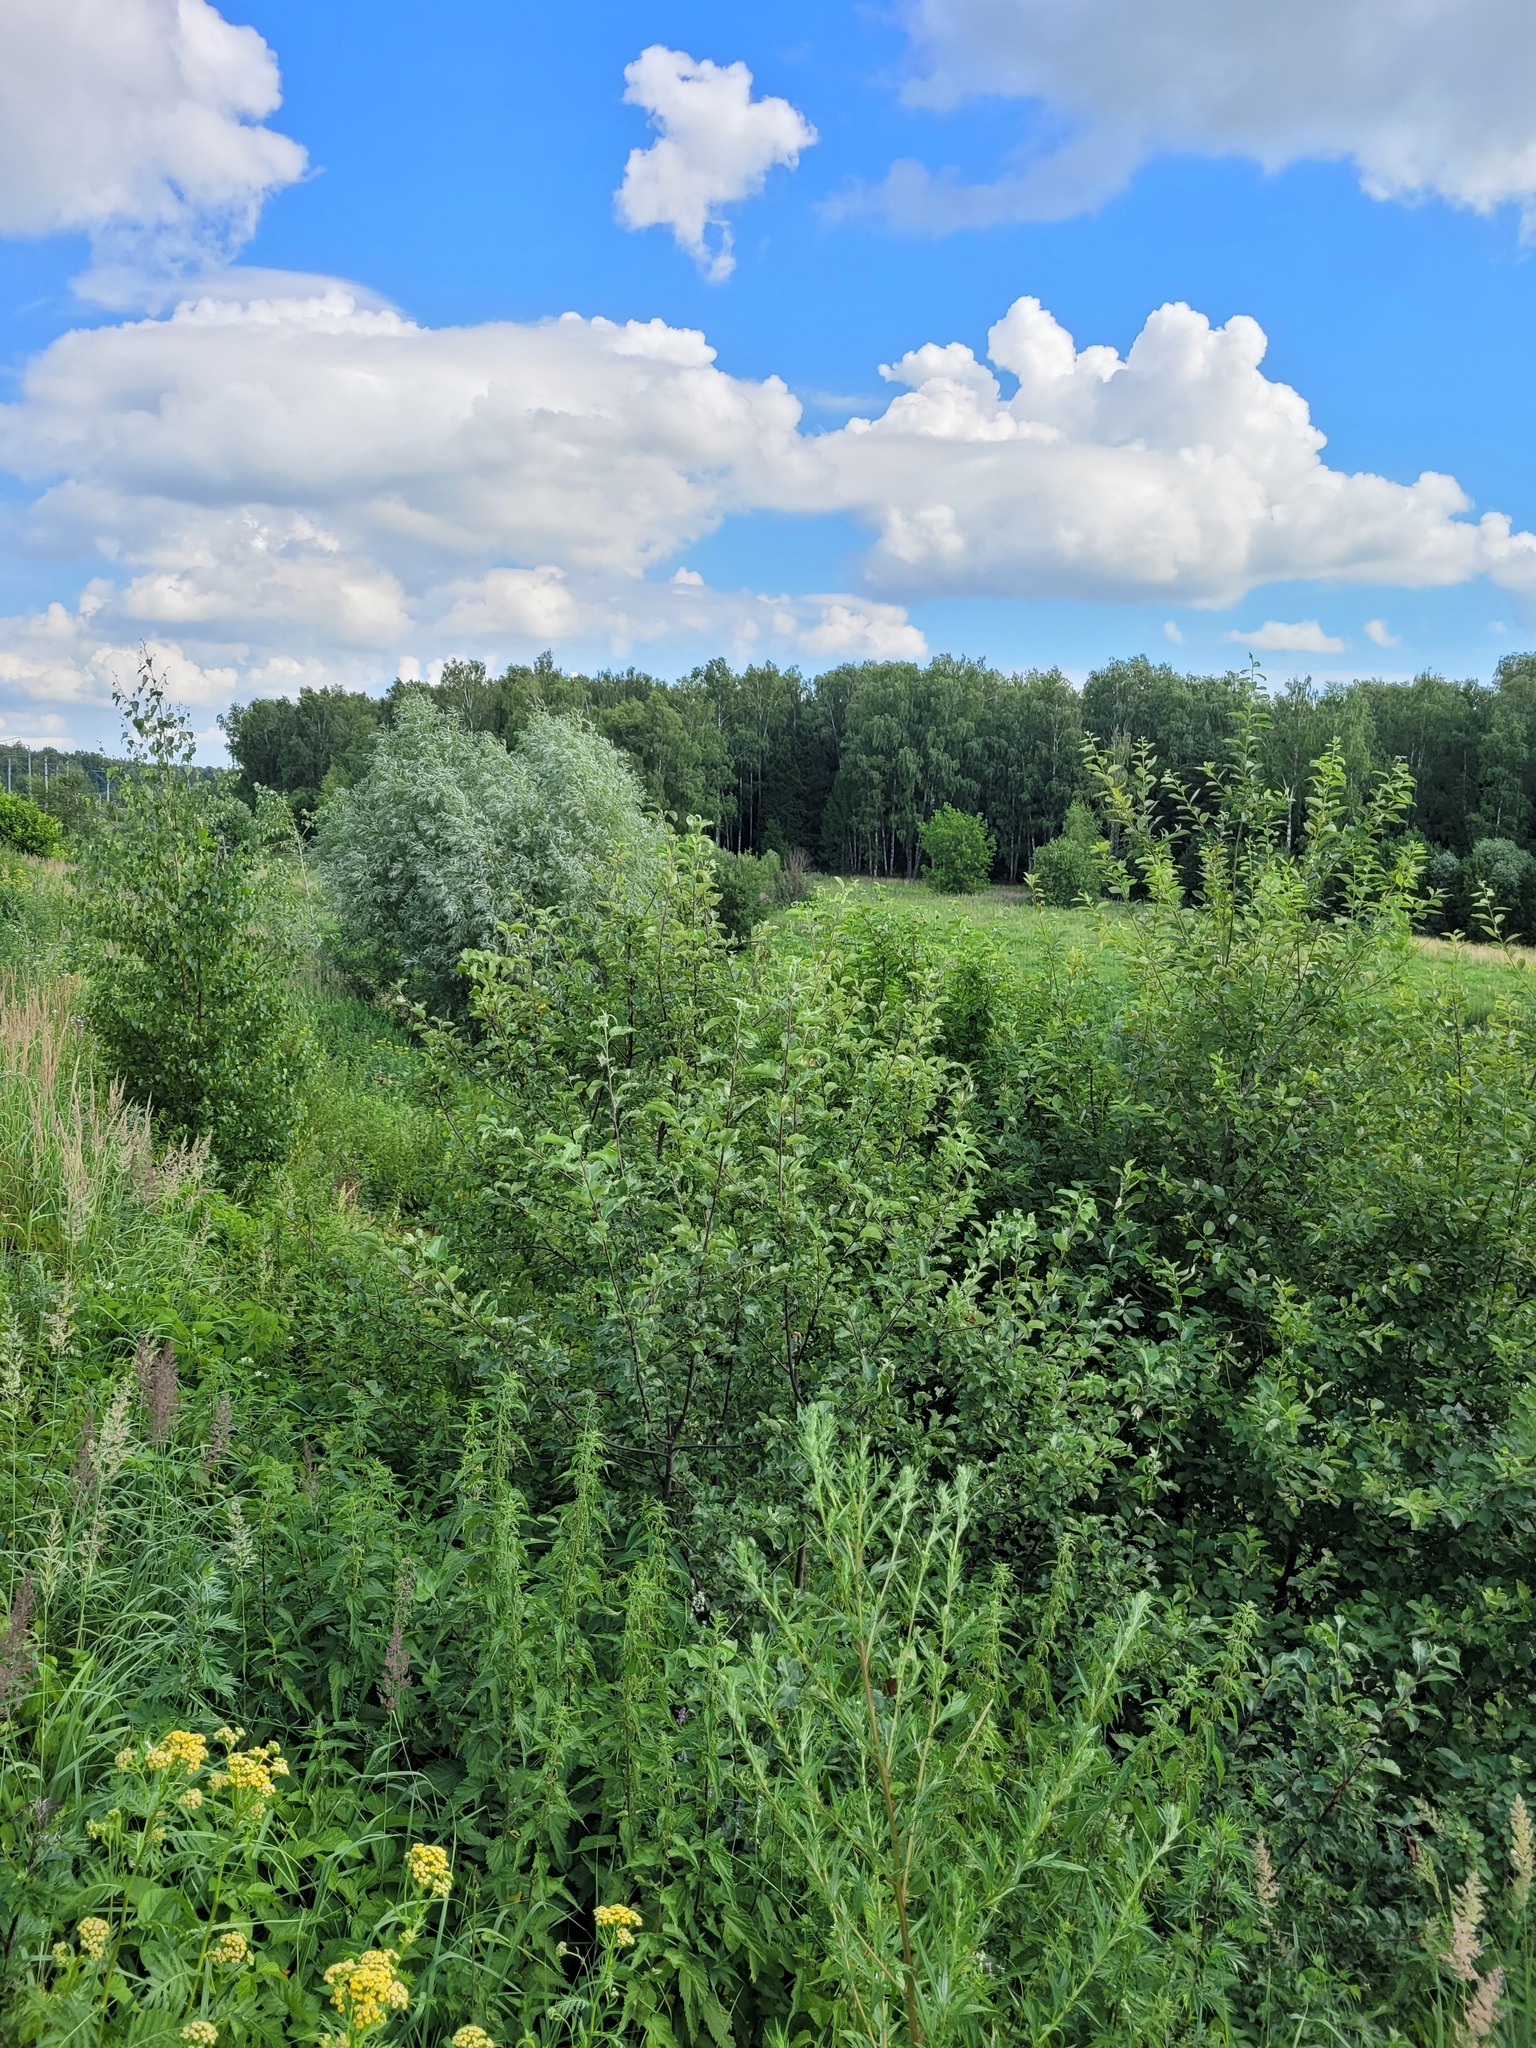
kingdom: Plantae
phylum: Tracheophyta
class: Magnoliopsida
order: Rosales
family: Rosaceae
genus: Malus
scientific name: Malus domestica
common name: Apple
